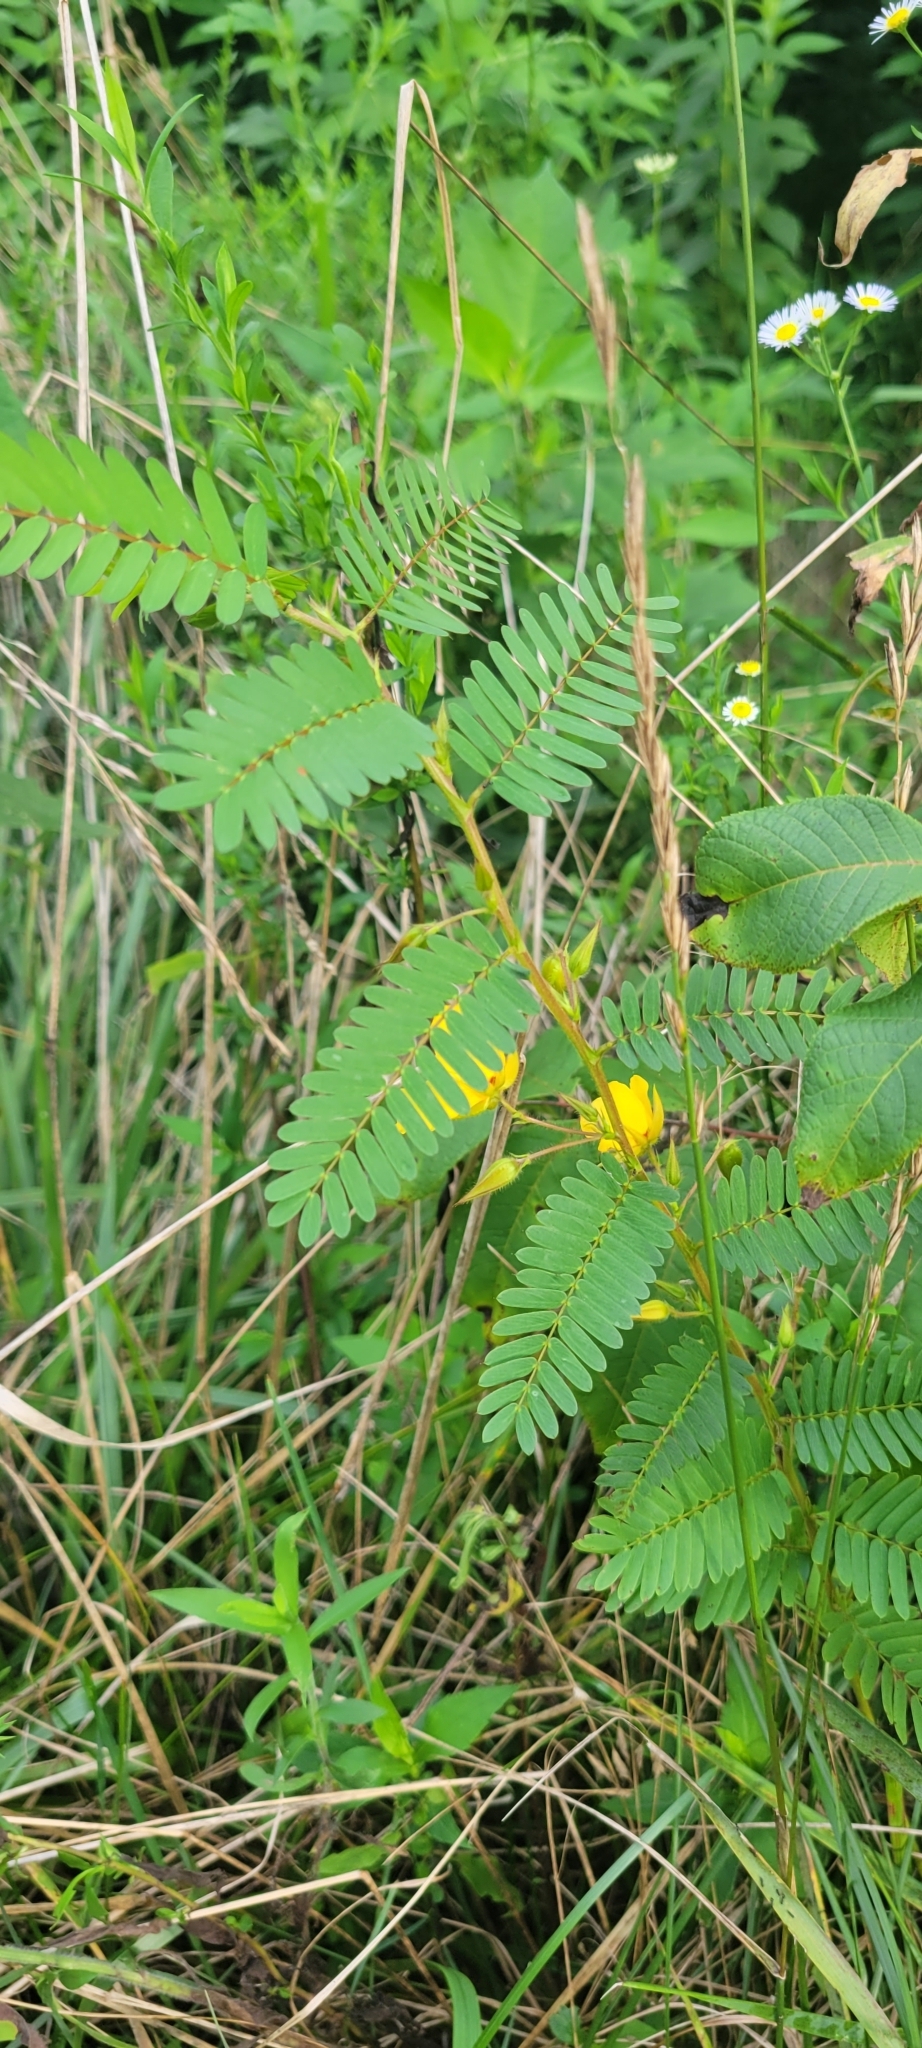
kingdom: Plantae
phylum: Tracheophyta
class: Magnoliopsida
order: Fabales
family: Fabaceae
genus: Chamaecrista
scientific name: Chamaecrista fasciculata
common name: Golden cassia
